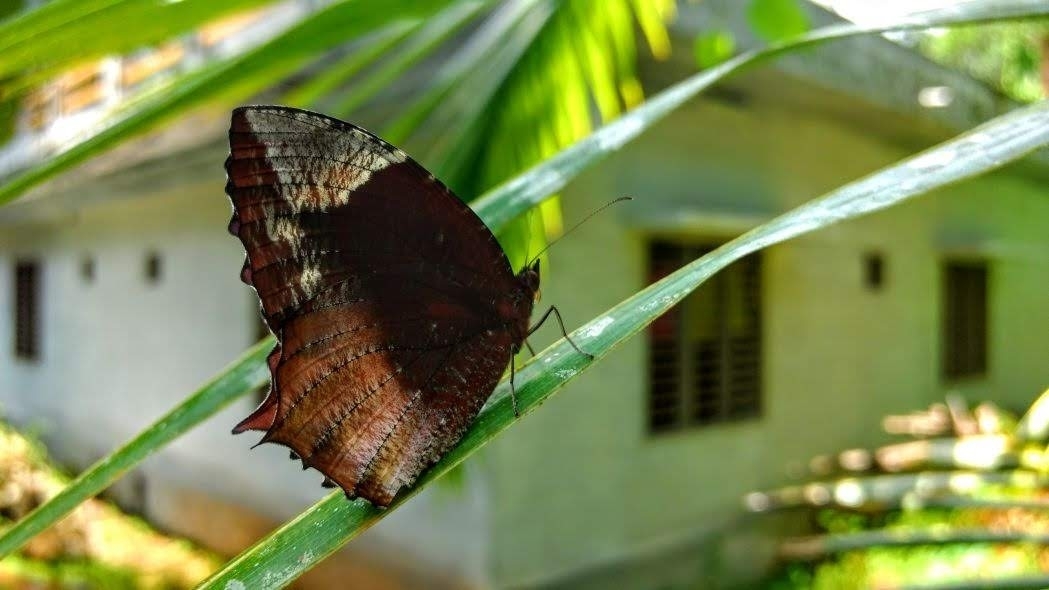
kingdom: Animalia
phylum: Arthropoda
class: Insecta
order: Lepidoptera
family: Nymphalidae
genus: Elymnias
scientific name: Elymnias caudata
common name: Tailed palmfly
